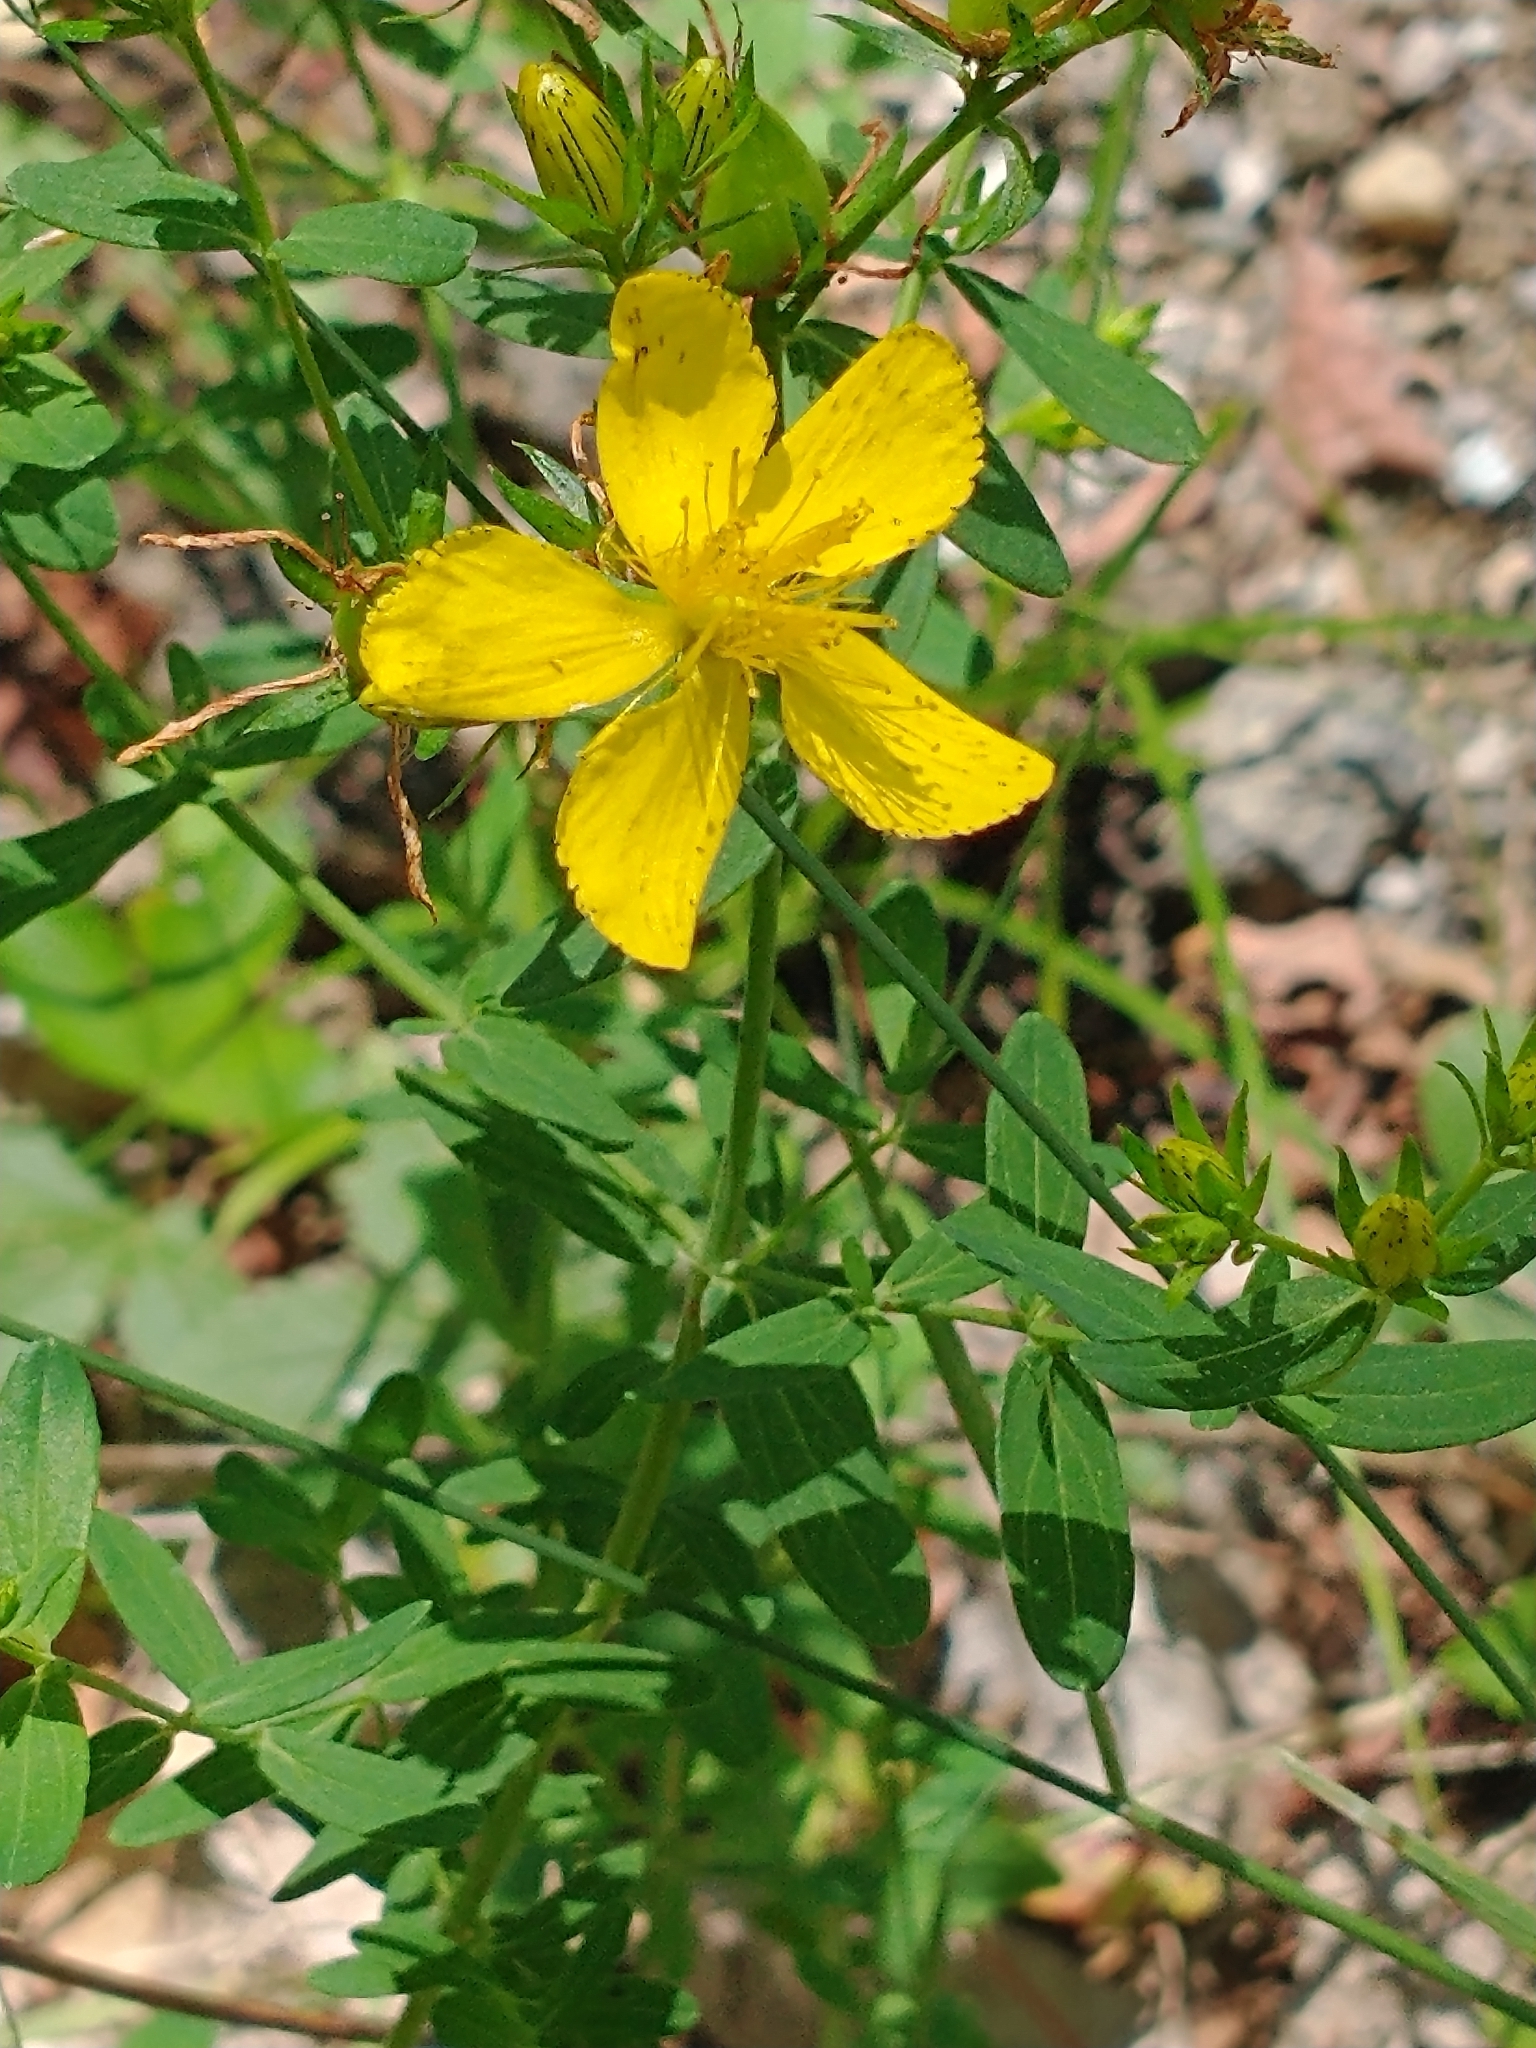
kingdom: Plantae
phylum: Tracheophyta
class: Magnoliopsida
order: Malpighiales
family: Hypericaceae
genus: Hypericum
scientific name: Hypericum perforatum
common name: Common st. johnswort
